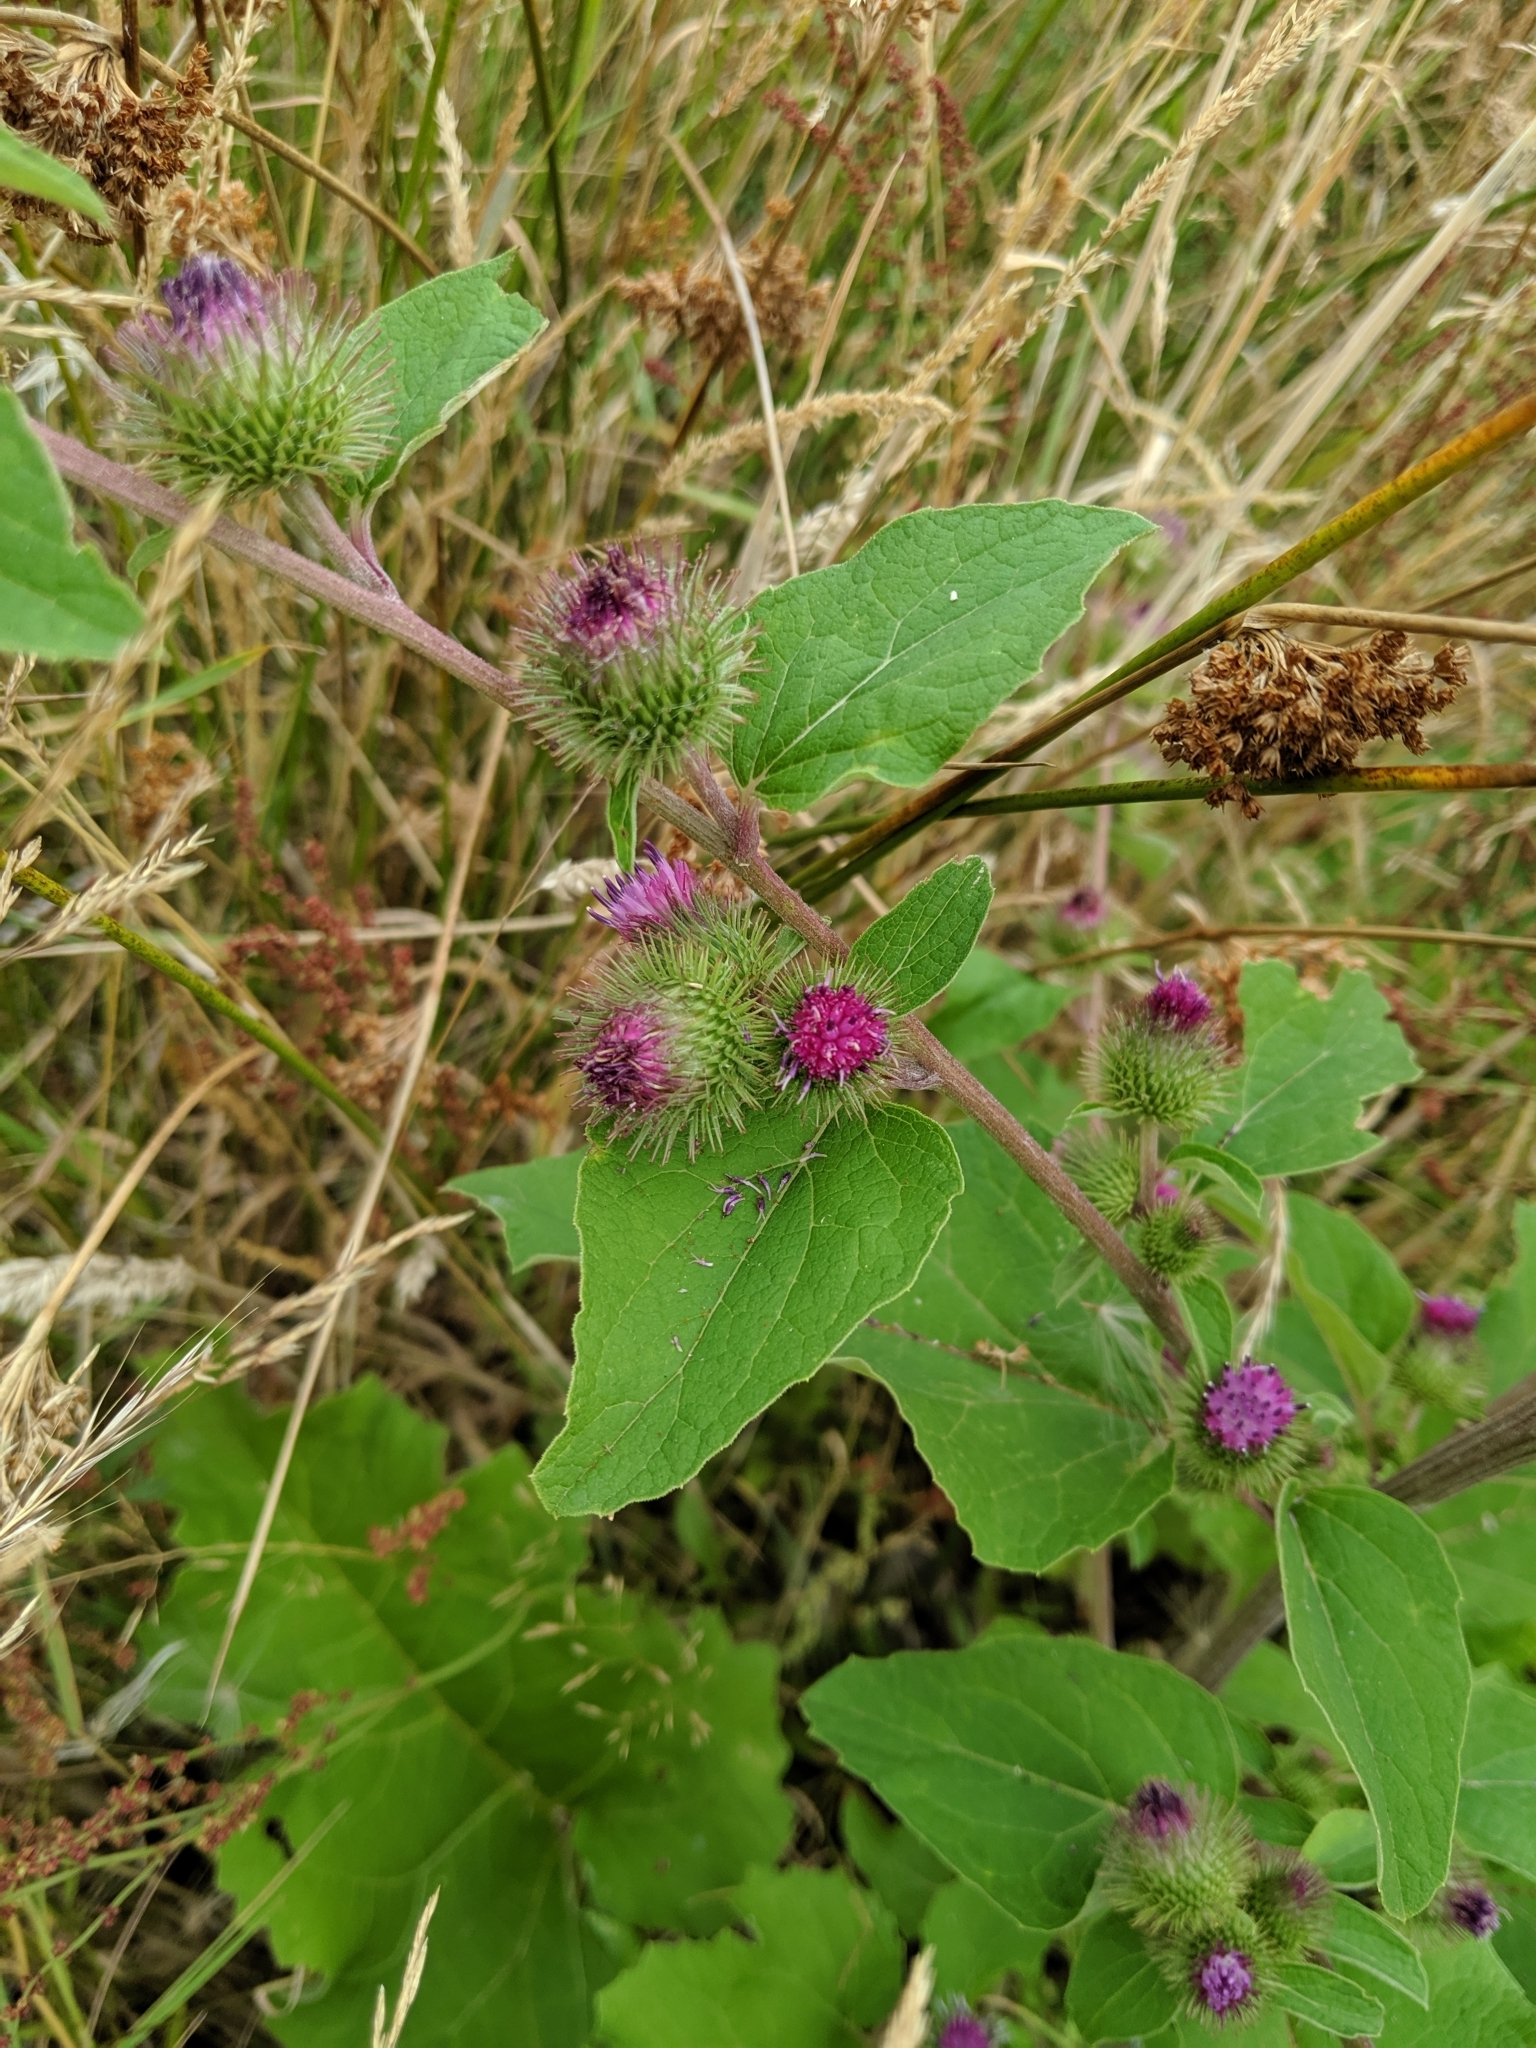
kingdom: Plantae
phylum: Tracheophyta
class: Magnoliopsida
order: Asterales
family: Asteraceae
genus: Arctium
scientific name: Arctium minus
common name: Lesser burdock
